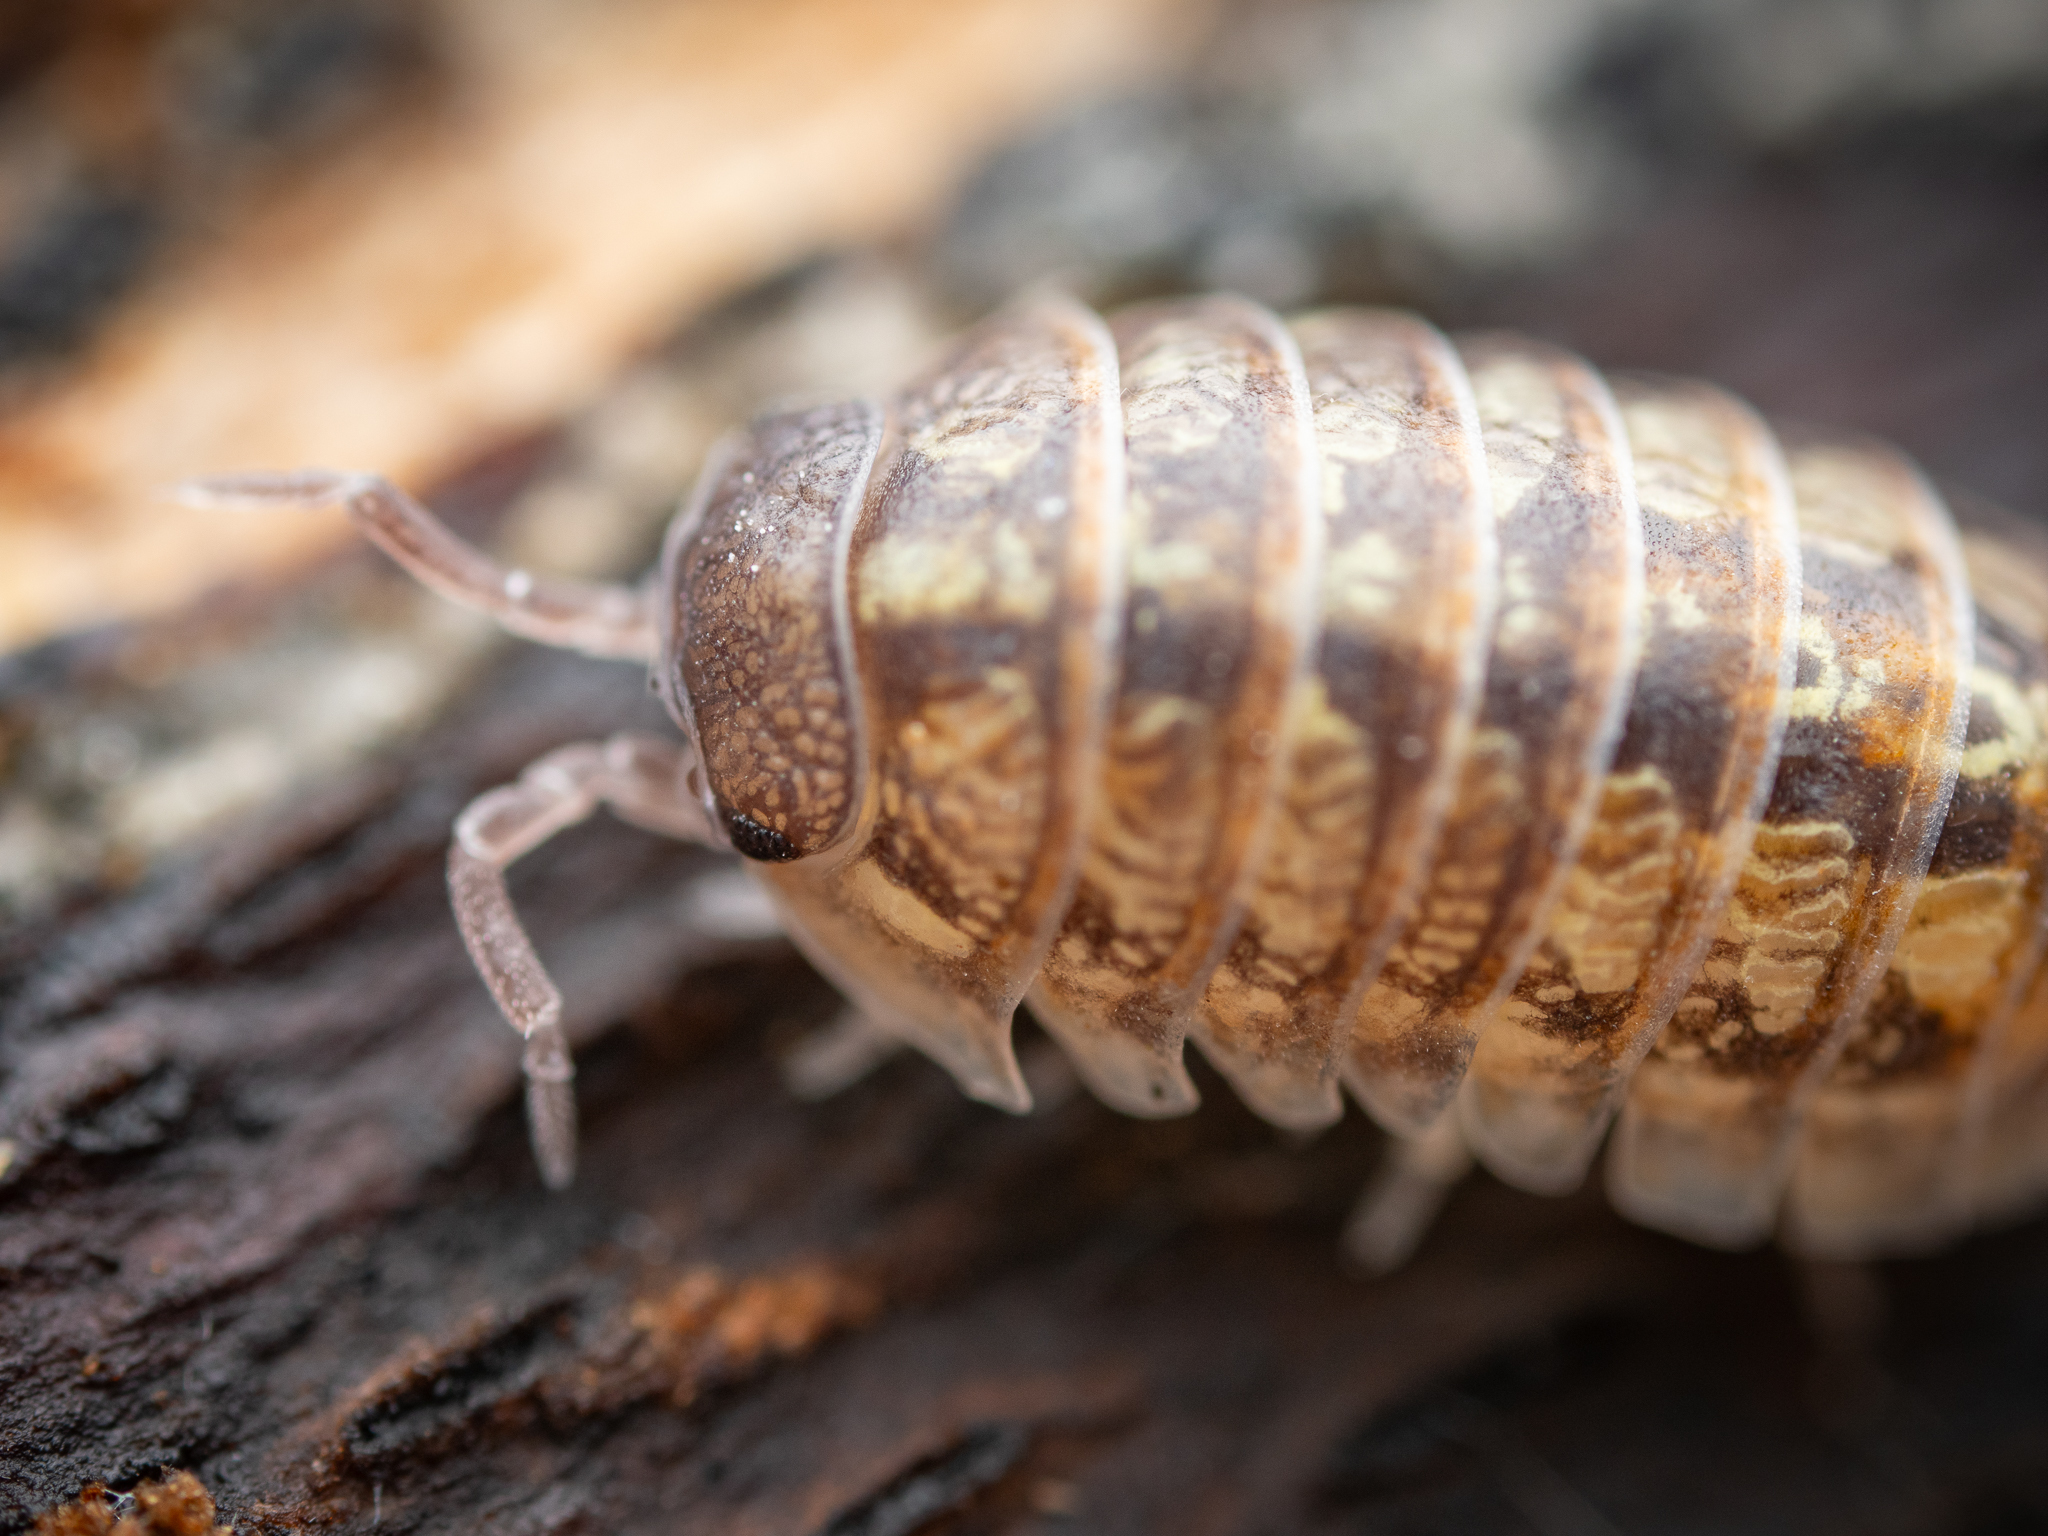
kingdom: Animalia
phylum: Arthropoda
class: Malacostraca
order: Isopoda
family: Armadillidiidae
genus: Armadillidium
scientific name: Armadillidium vulgare
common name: Common pill woodlouse
